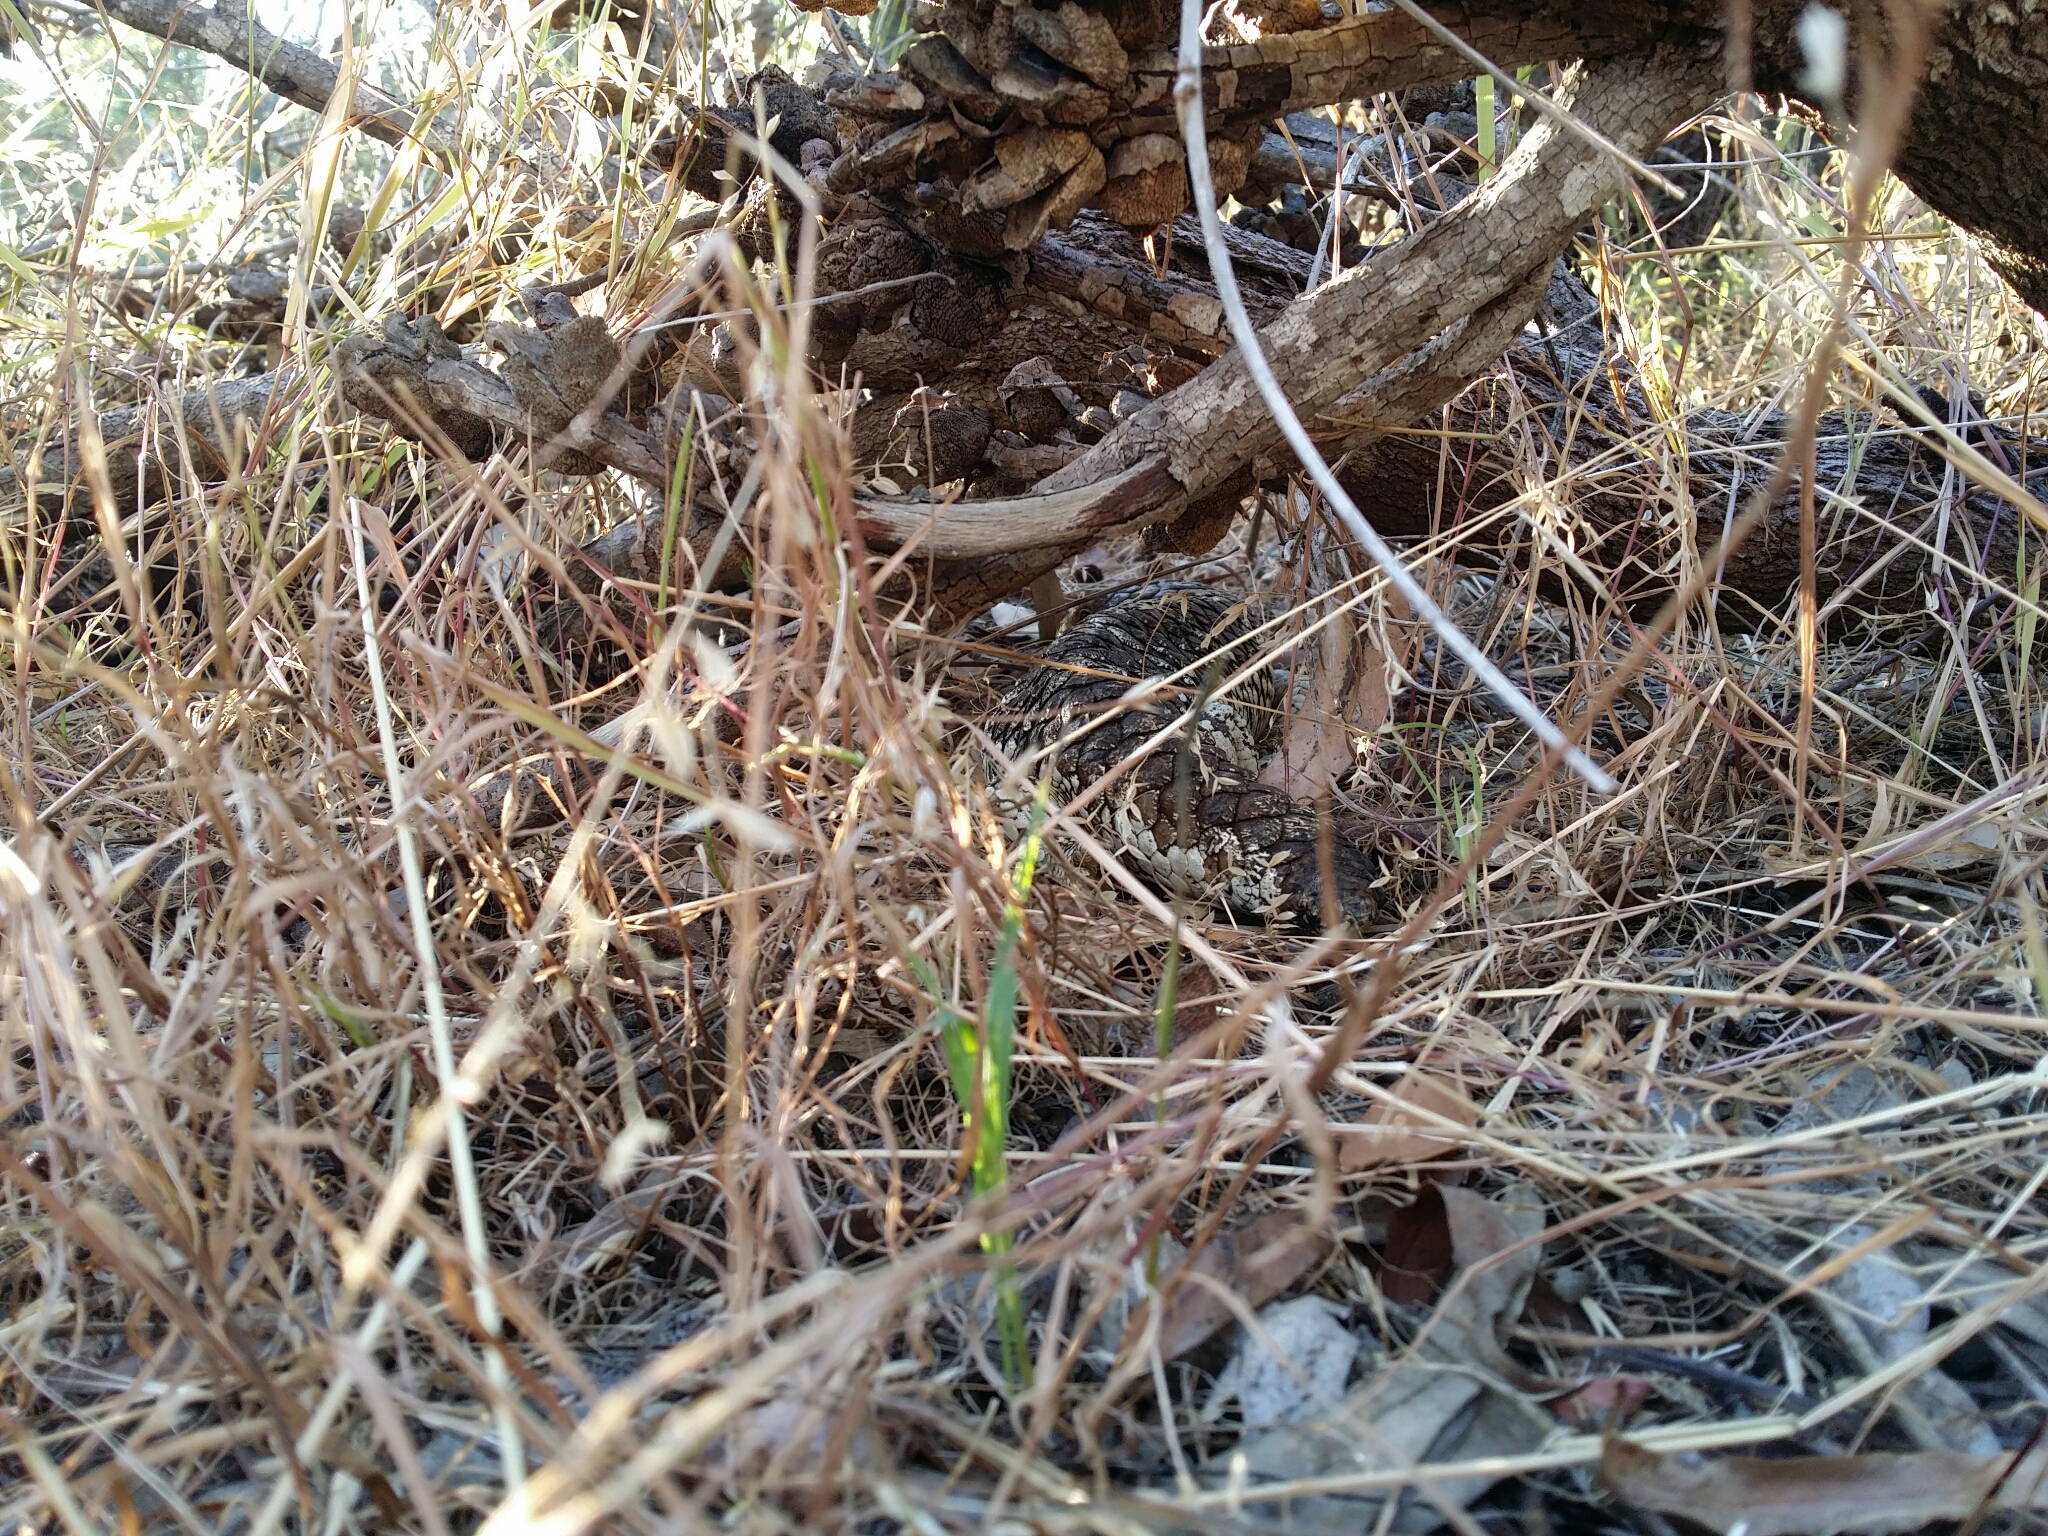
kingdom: Animalia
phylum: Chordata
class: Squamata
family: Scincidae
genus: Tiliqua
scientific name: Tiliqua rugosa
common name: Pinecone lizard
